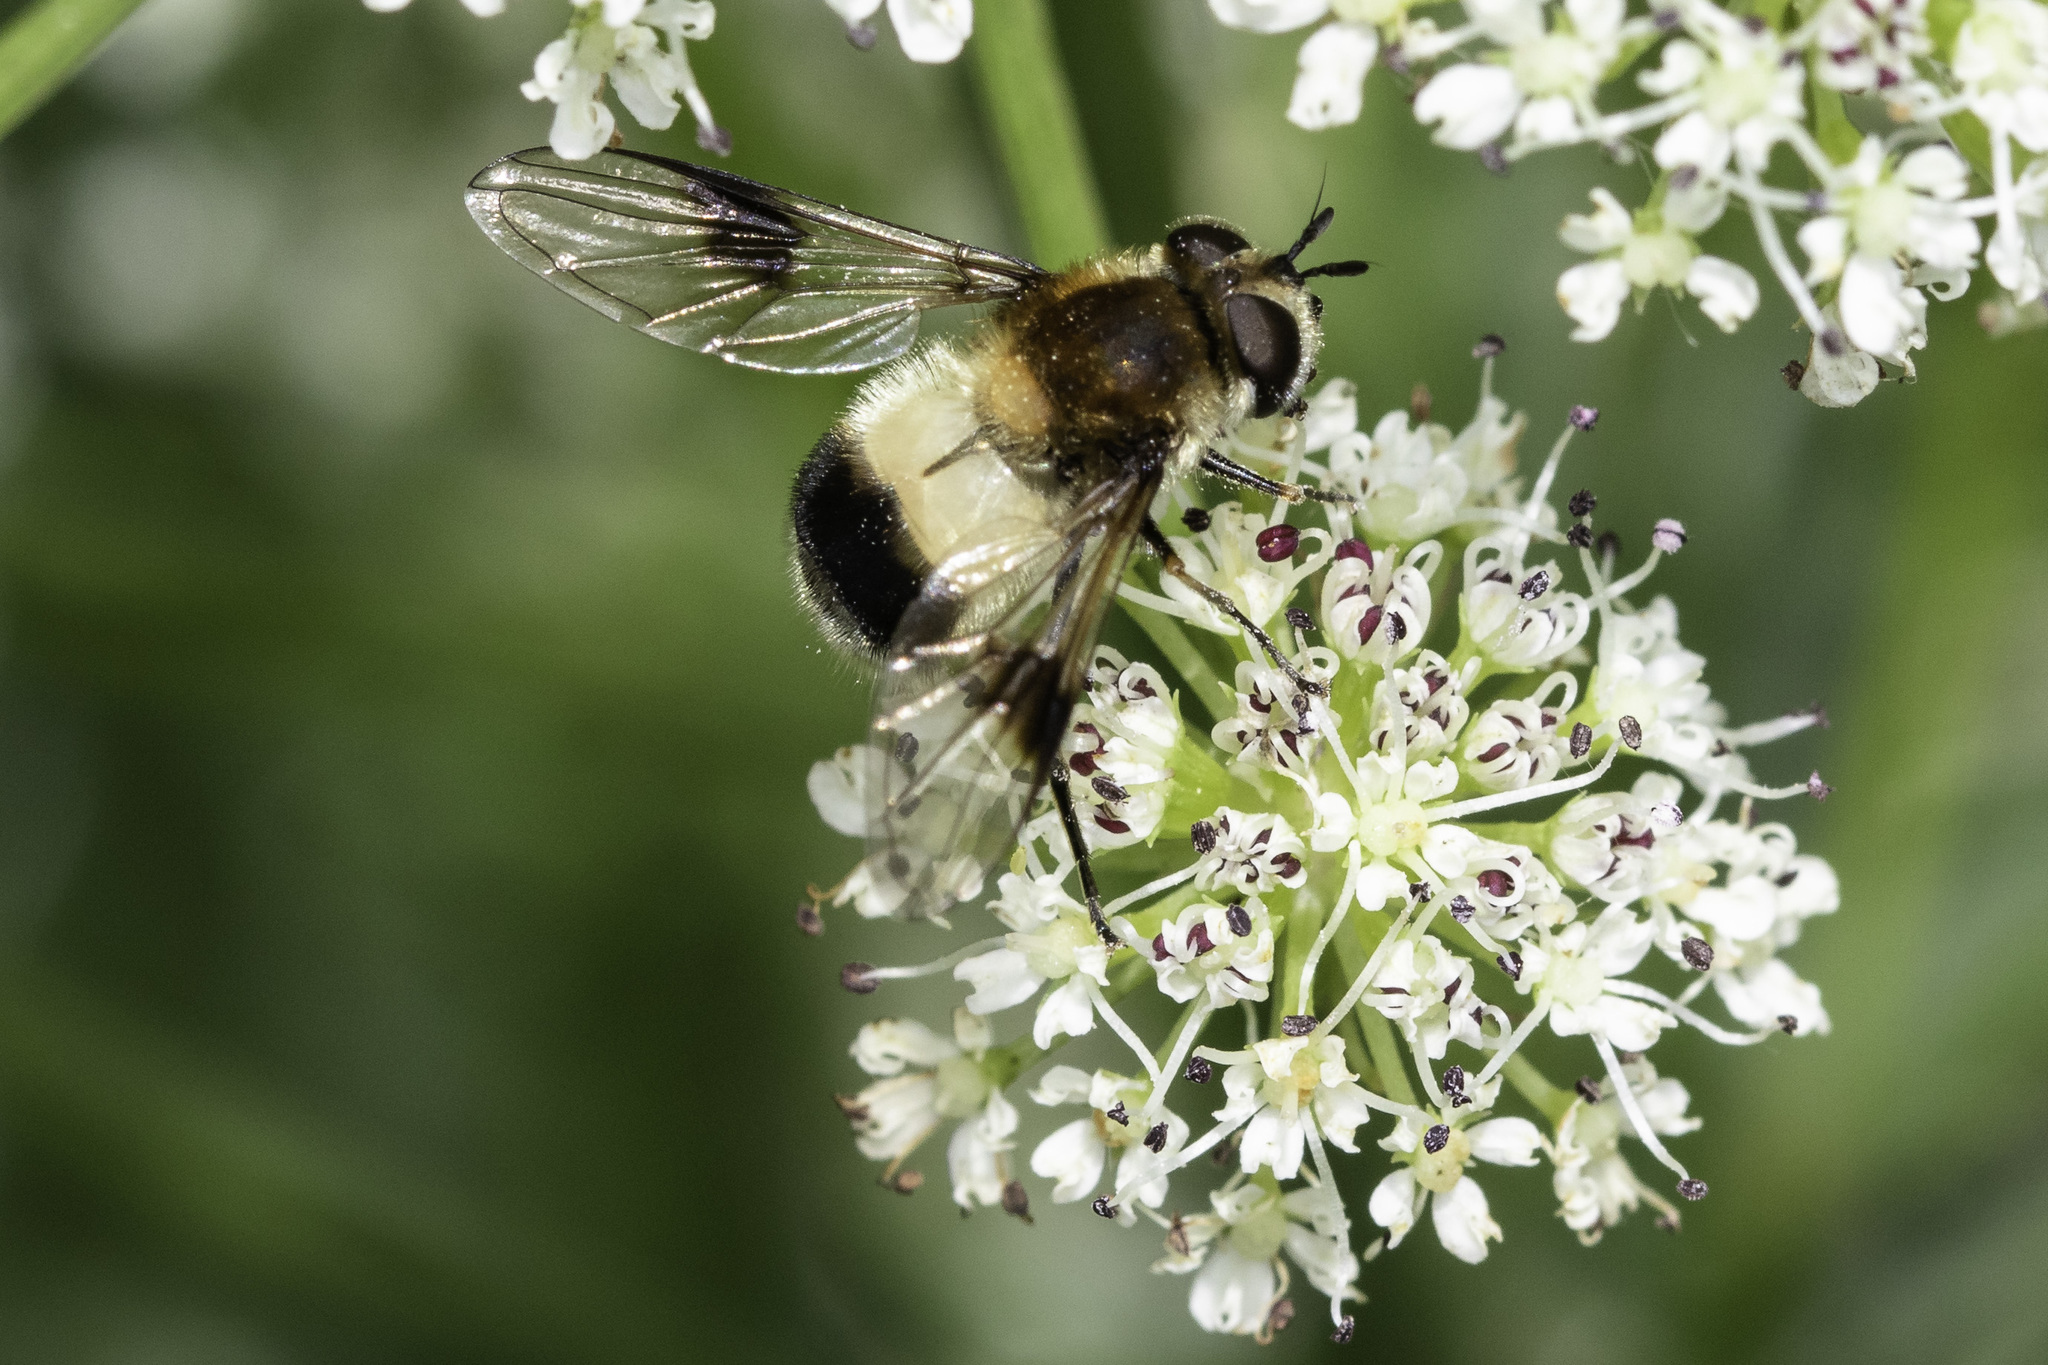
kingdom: Animalia
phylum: Arthropoda
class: Insecta
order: Diptera
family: Syrphidae
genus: Leucozona
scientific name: Leucozona lucorum
